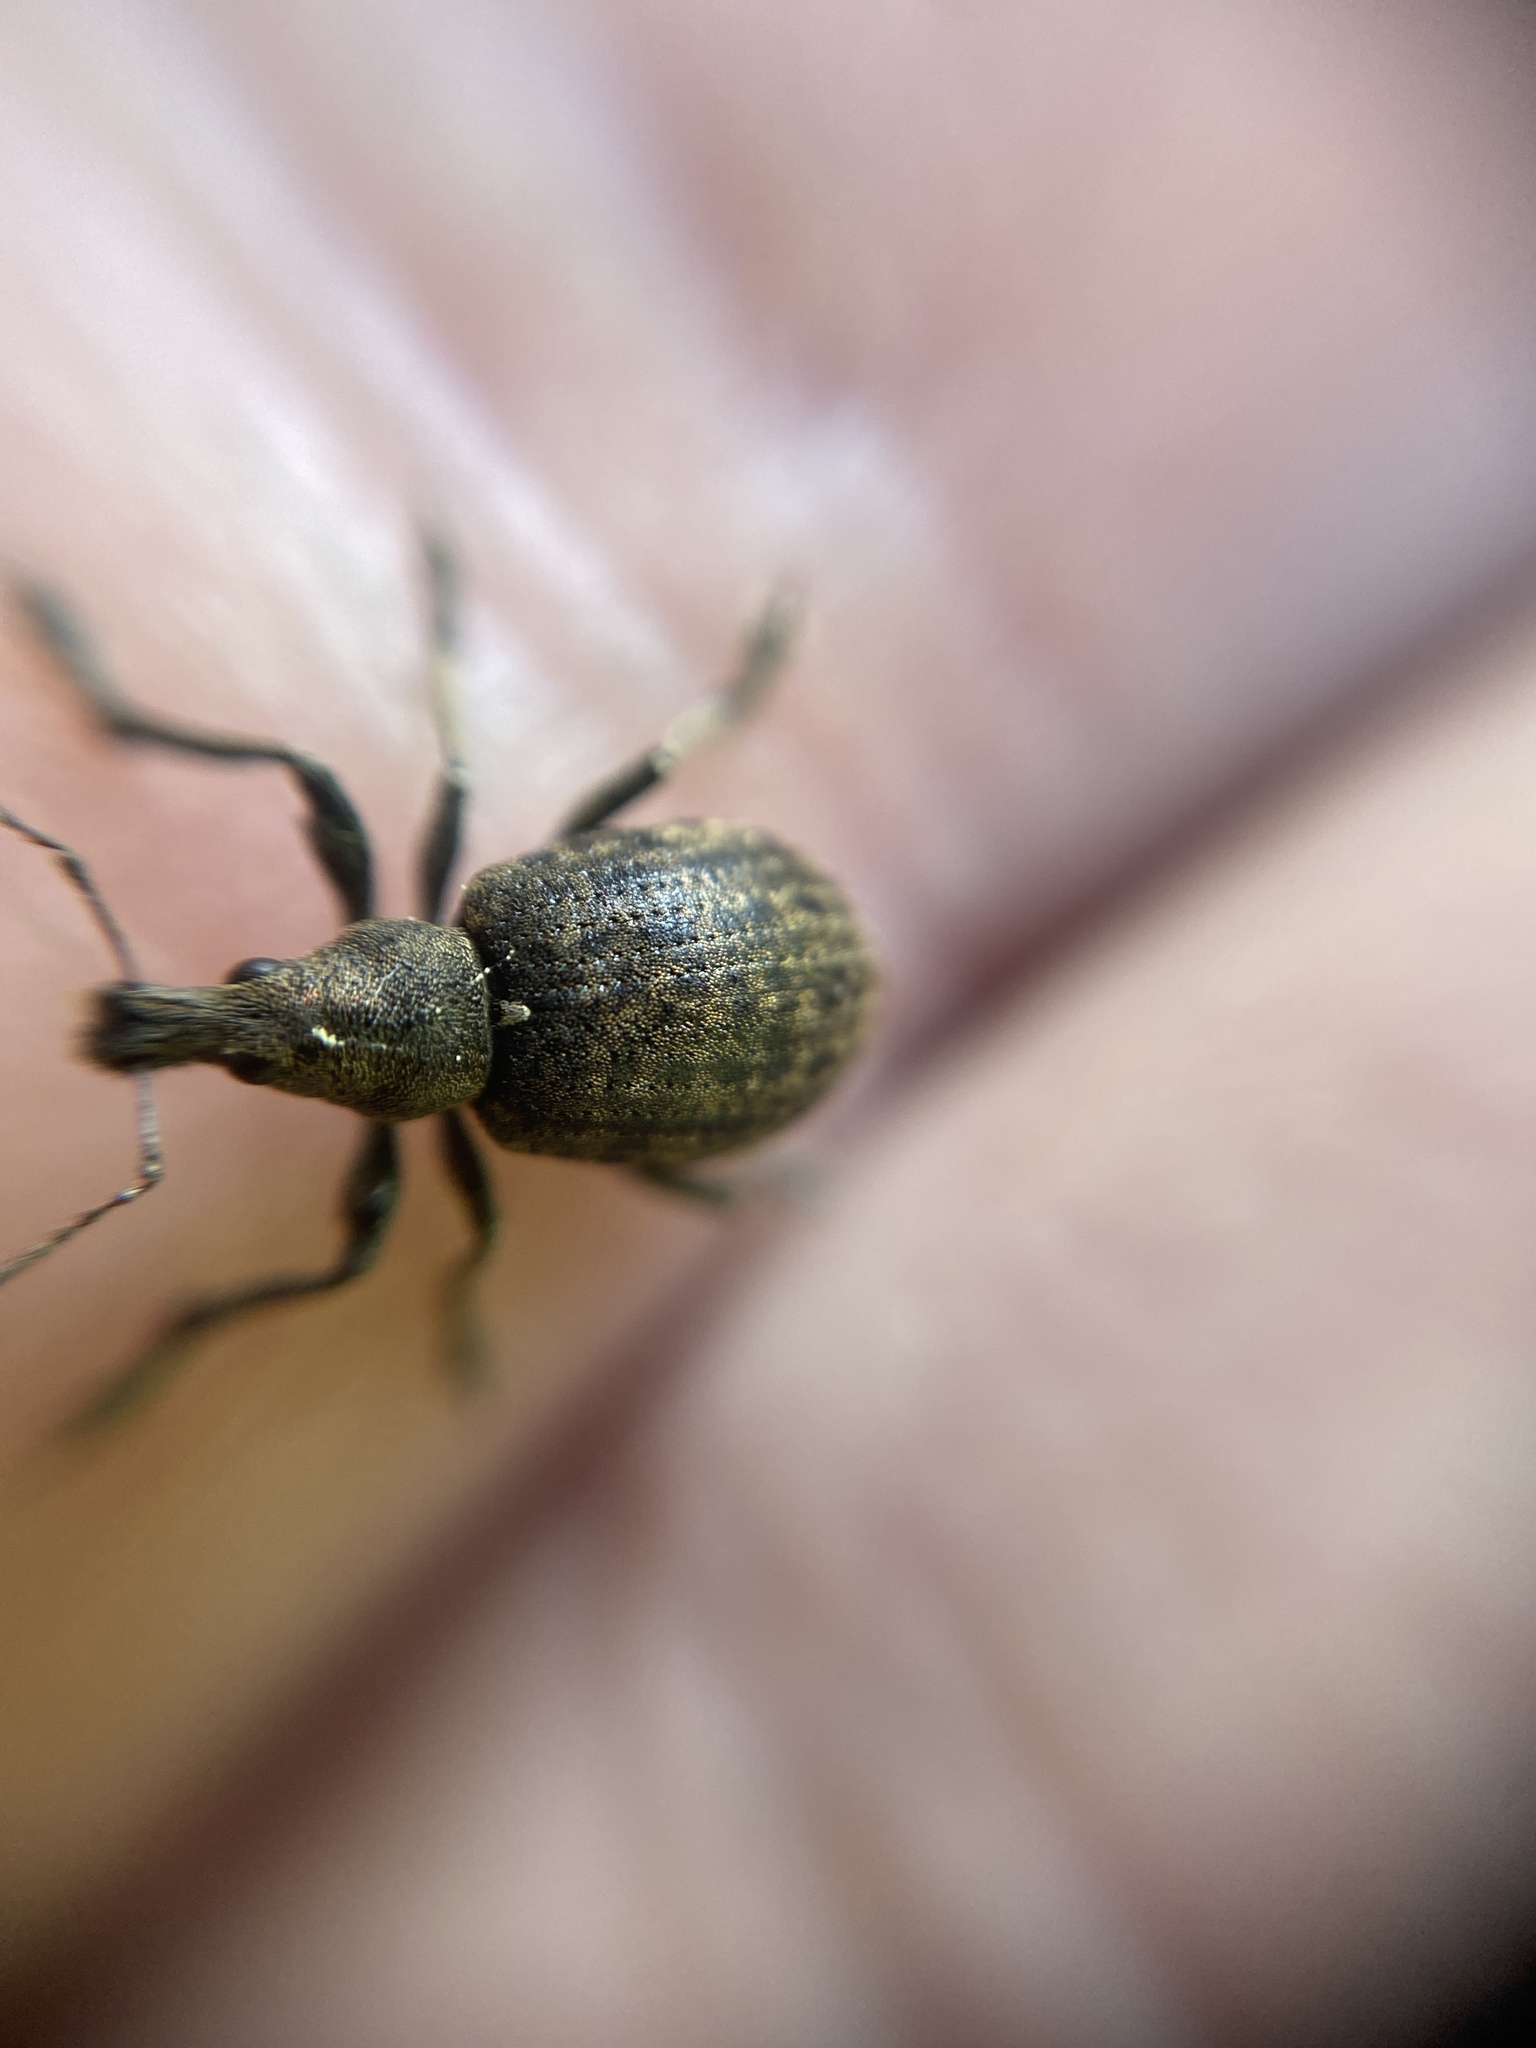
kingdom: Animalia
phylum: Arthropoda
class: Insecta
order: Coleoptera
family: Curculionidae
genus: Liophloeus
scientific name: Liophloeus tessulatus
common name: Weevil
